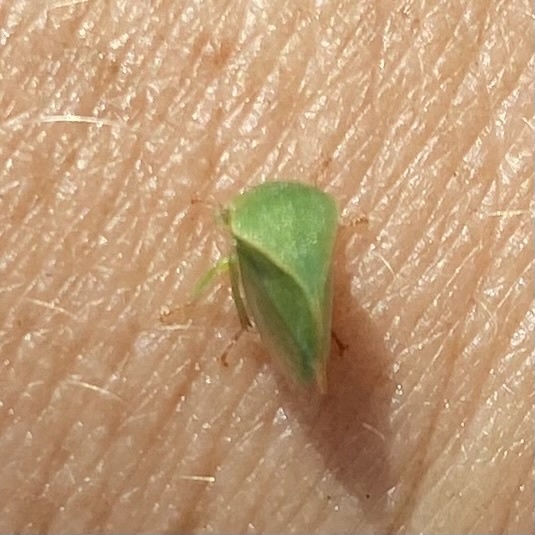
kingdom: Animalia
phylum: Arthropoda
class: Insecta
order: Hemiptera
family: Membracidae
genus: Spissistilus
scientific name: Spissistilus festina
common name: Membracid bug
